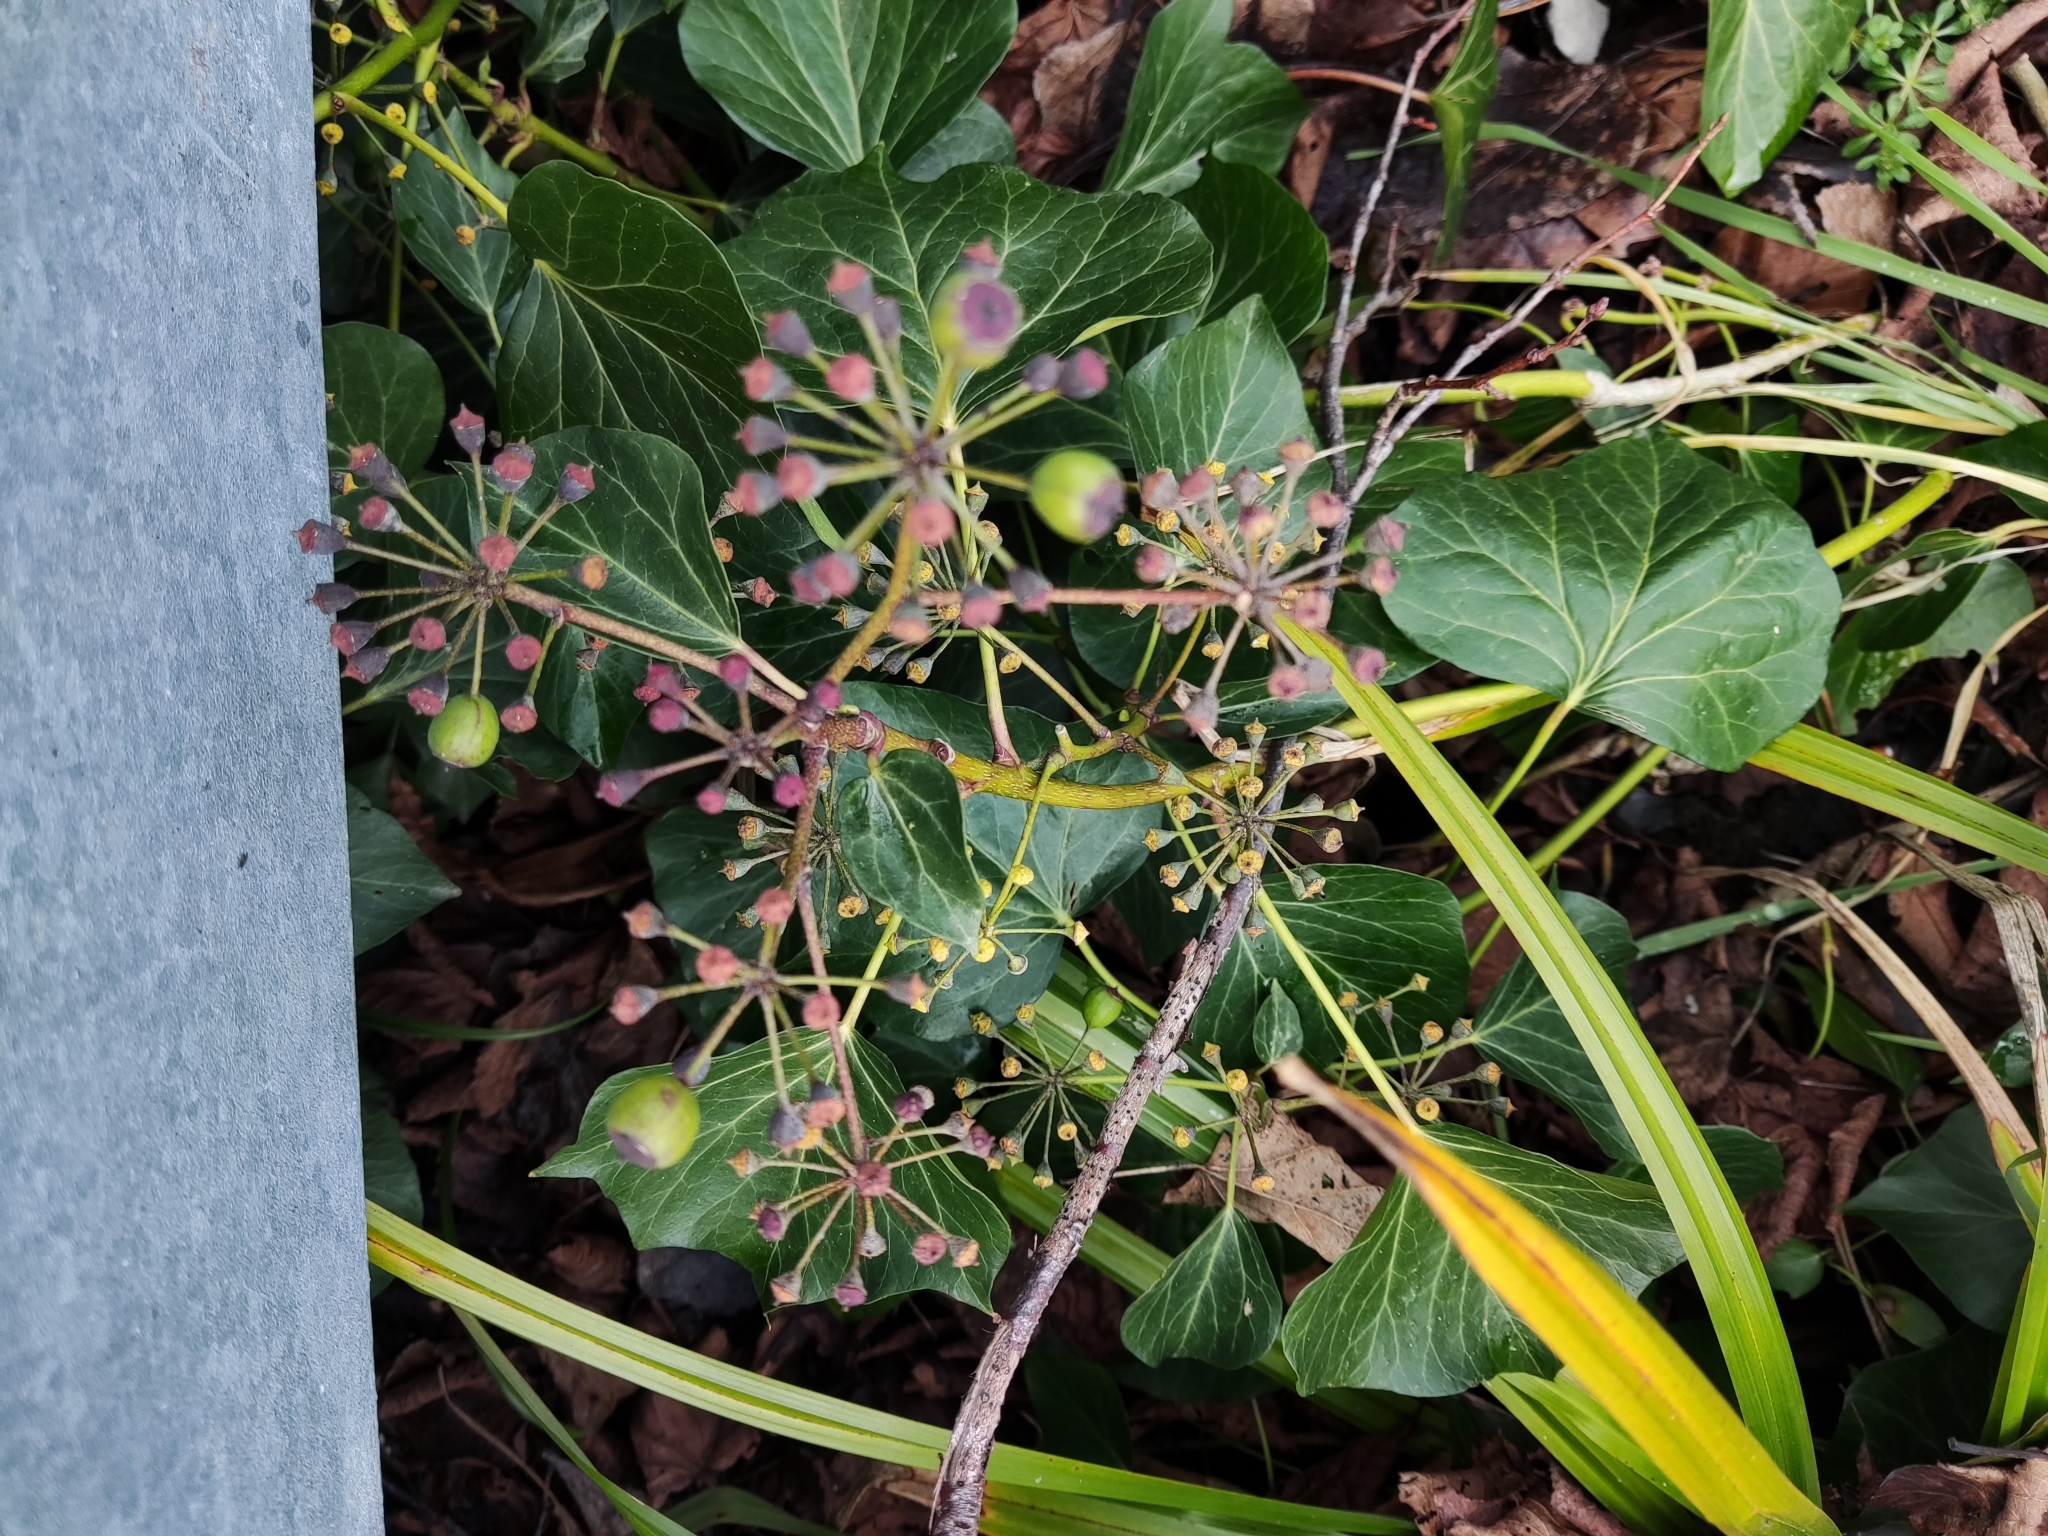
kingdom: Plantae
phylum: Tracheophyta
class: Magnoliopsida
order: Apiales
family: Araliaceae
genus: Hedera
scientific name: Hedera helix
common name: Ivy
